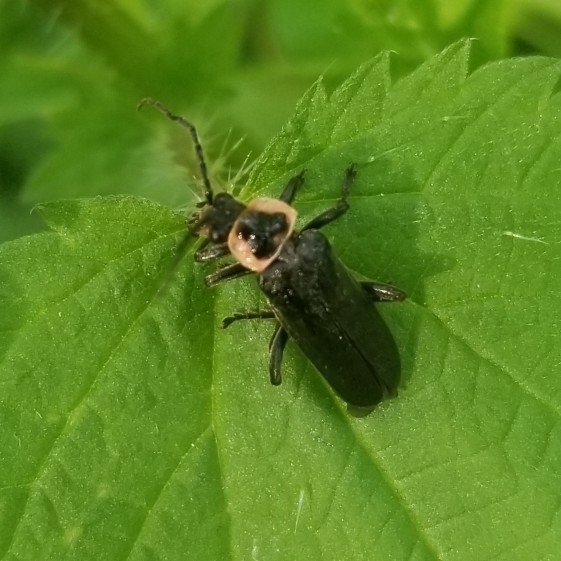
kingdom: Animalia
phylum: Arthropoda
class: Insecta
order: Coleoptera
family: Cantharidae
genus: Rhaxonycha
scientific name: Rhaxonycha carolina
